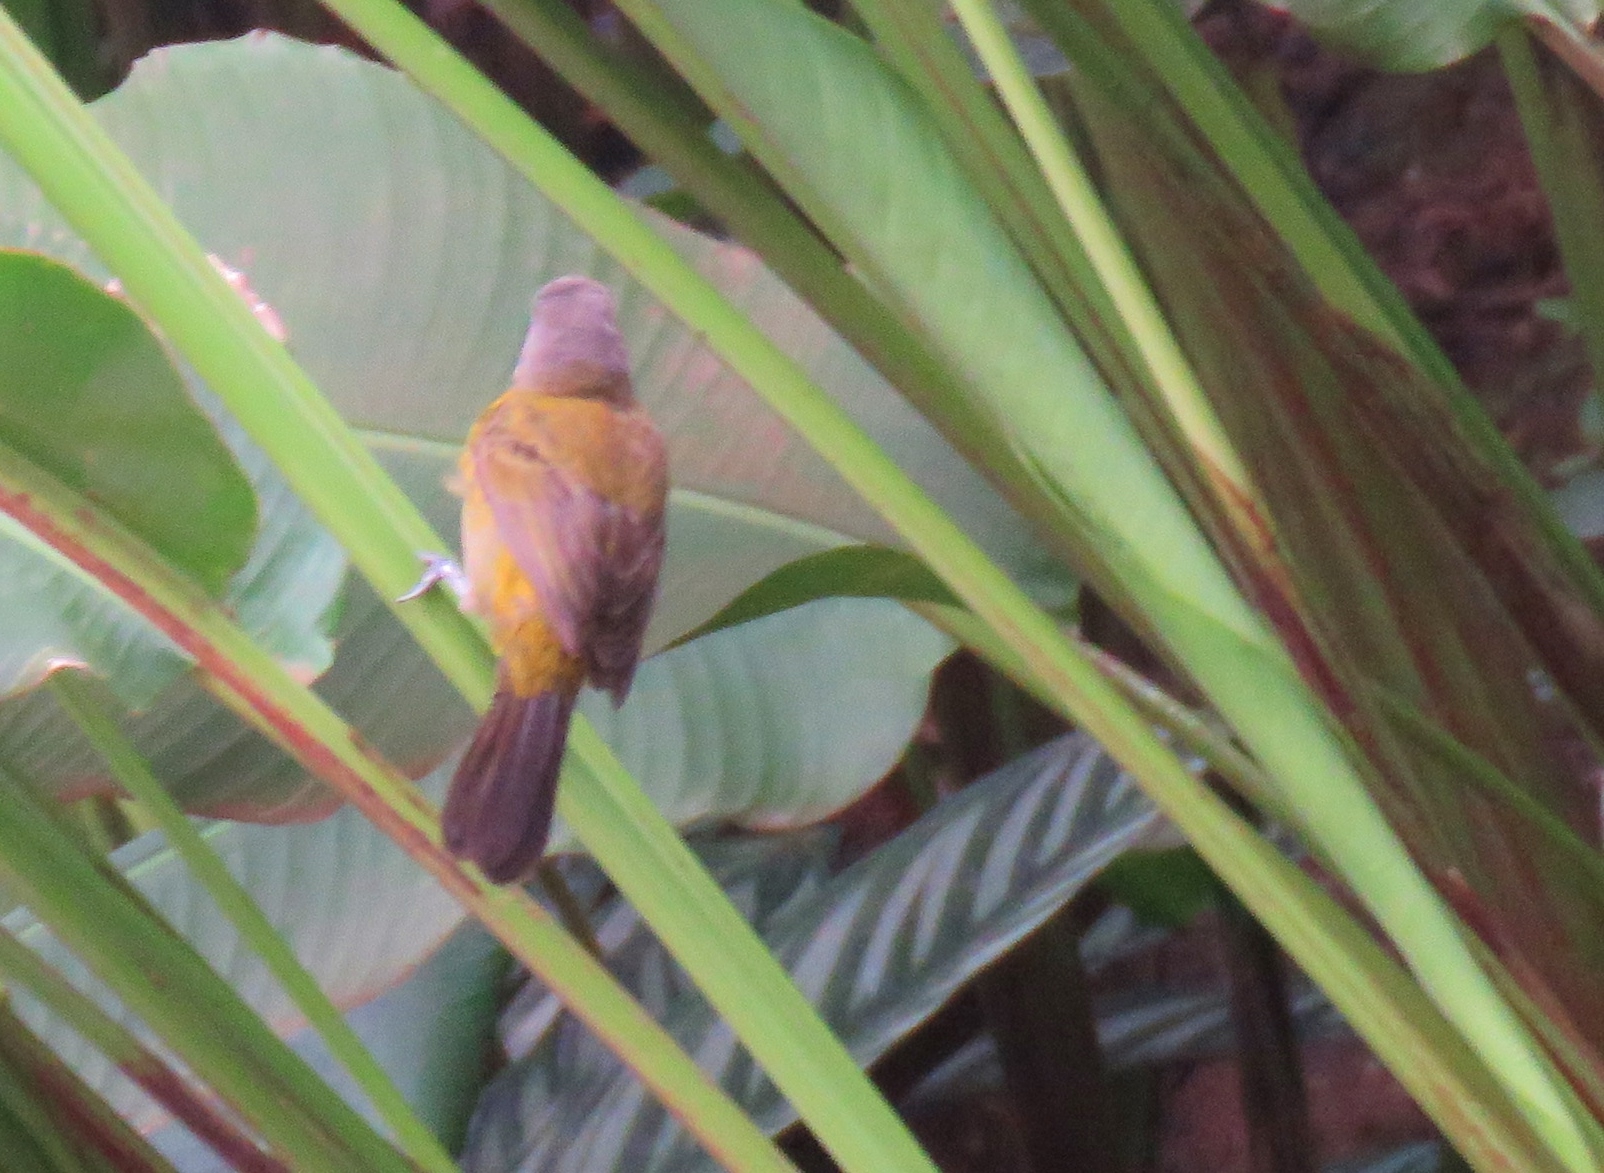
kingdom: Animalia
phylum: Chordata
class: Aves
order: Passeriformes
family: Thraupidae
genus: Ramphocelus
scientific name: Ramphocelus passerinii
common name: Passerini's tanager
